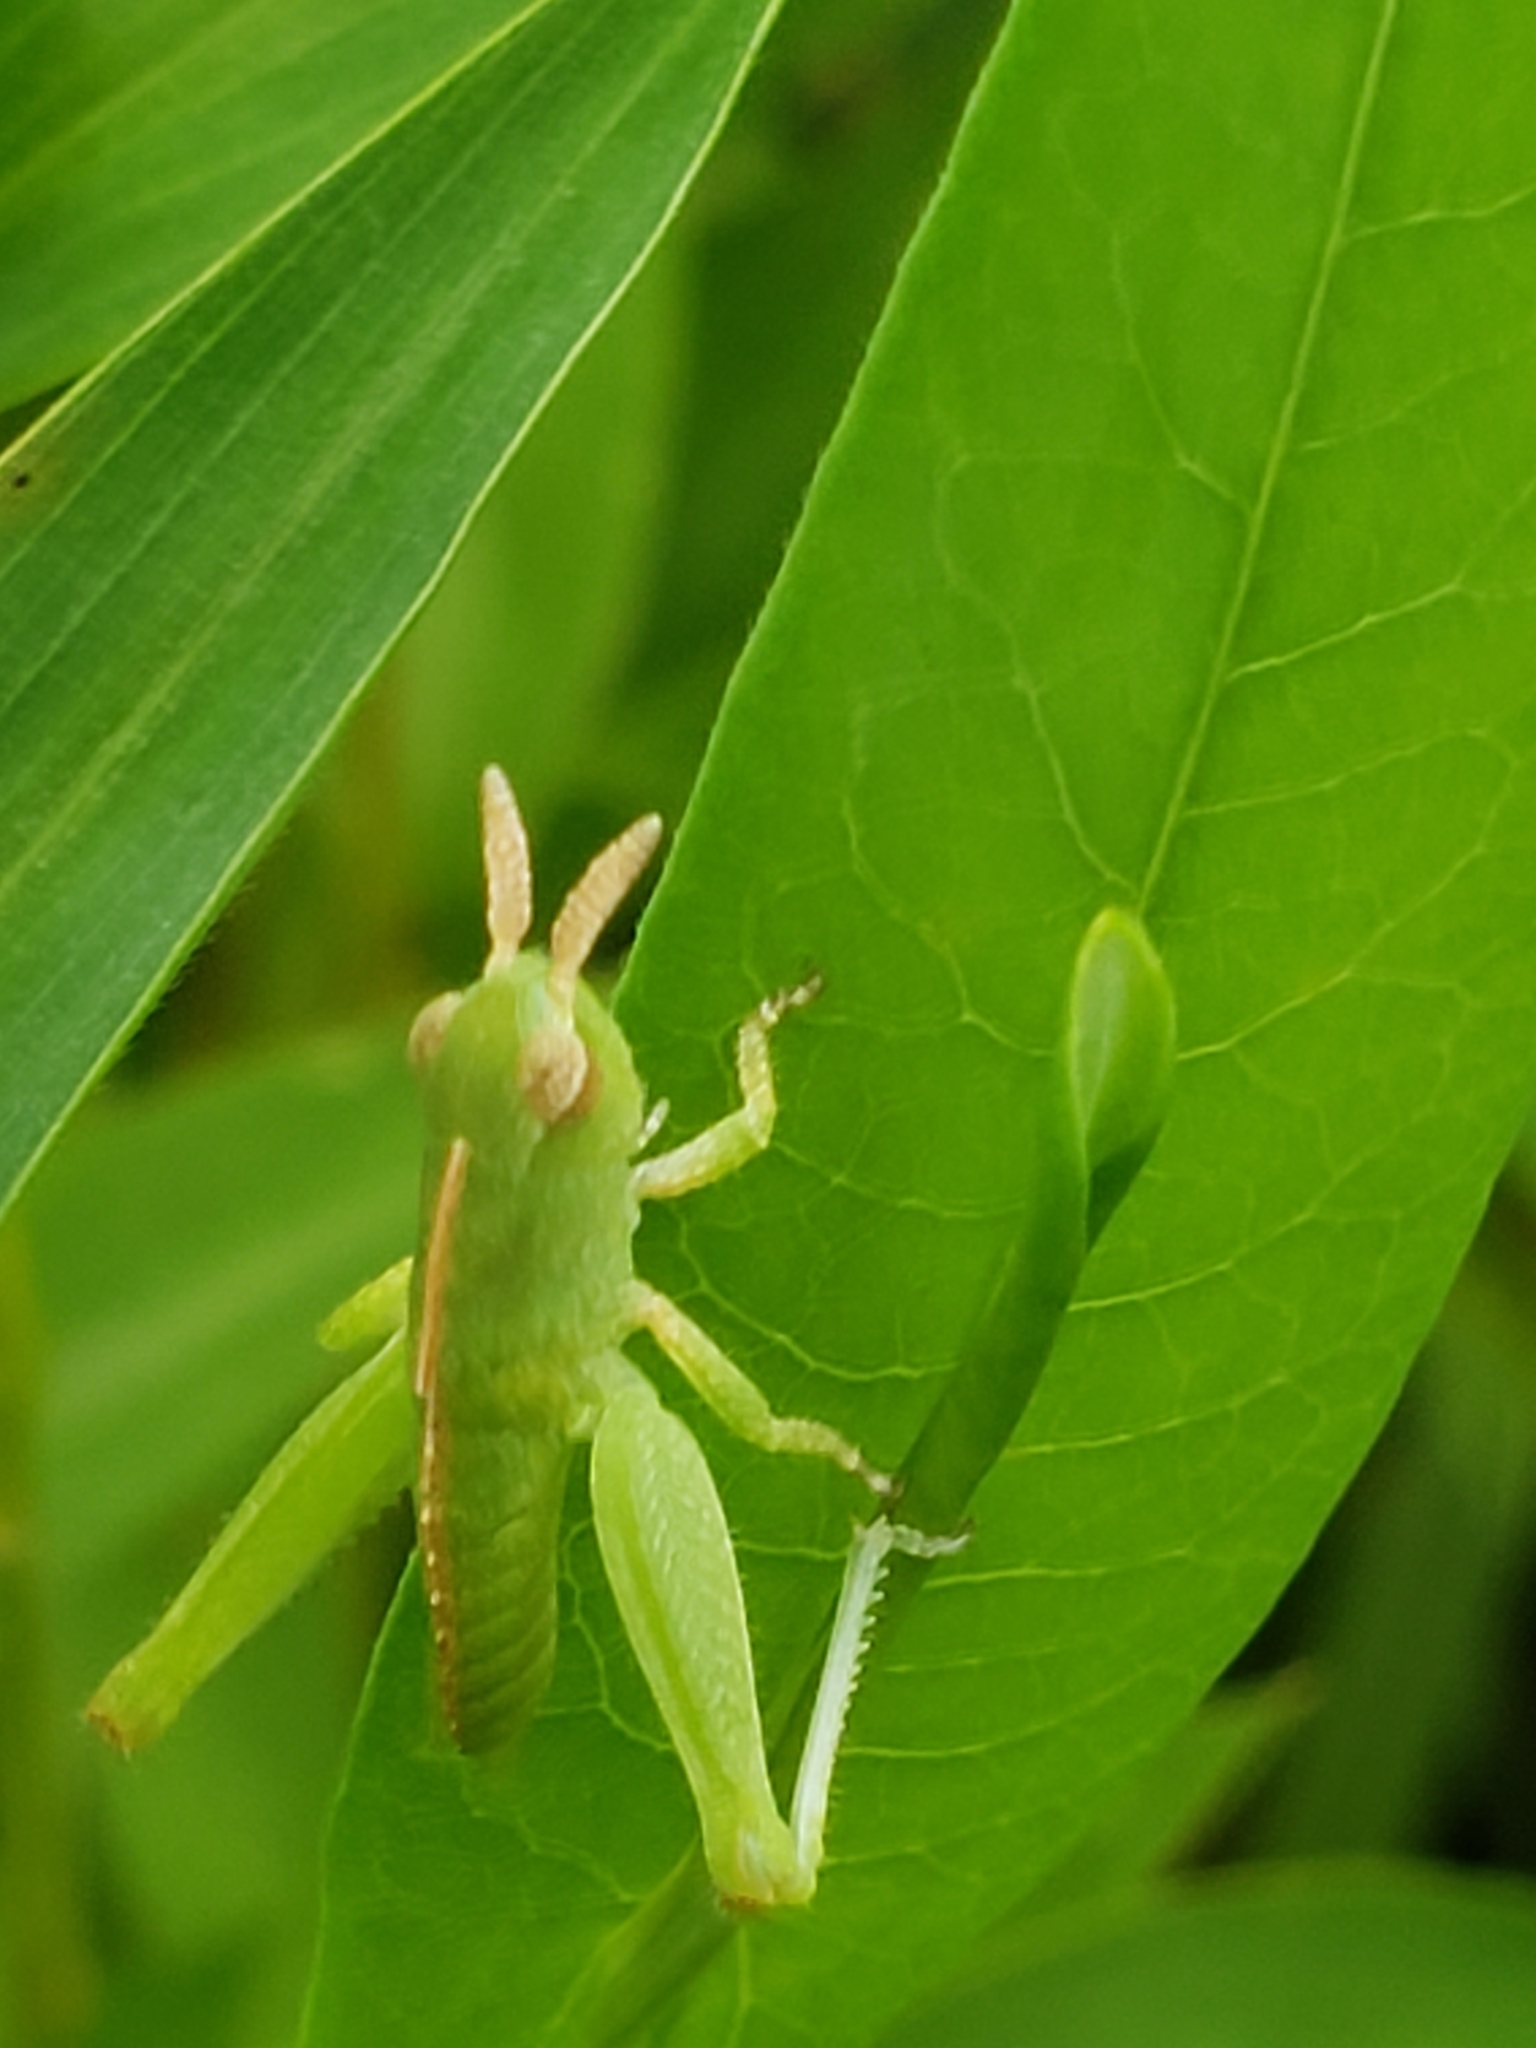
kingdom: Animalia
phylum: Arthropoda
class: Insecta
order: Orthoptera
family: Acrididae
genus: Chortophaga
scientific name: Chortophaga viridifasciata
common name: Green-striped grasshopper
